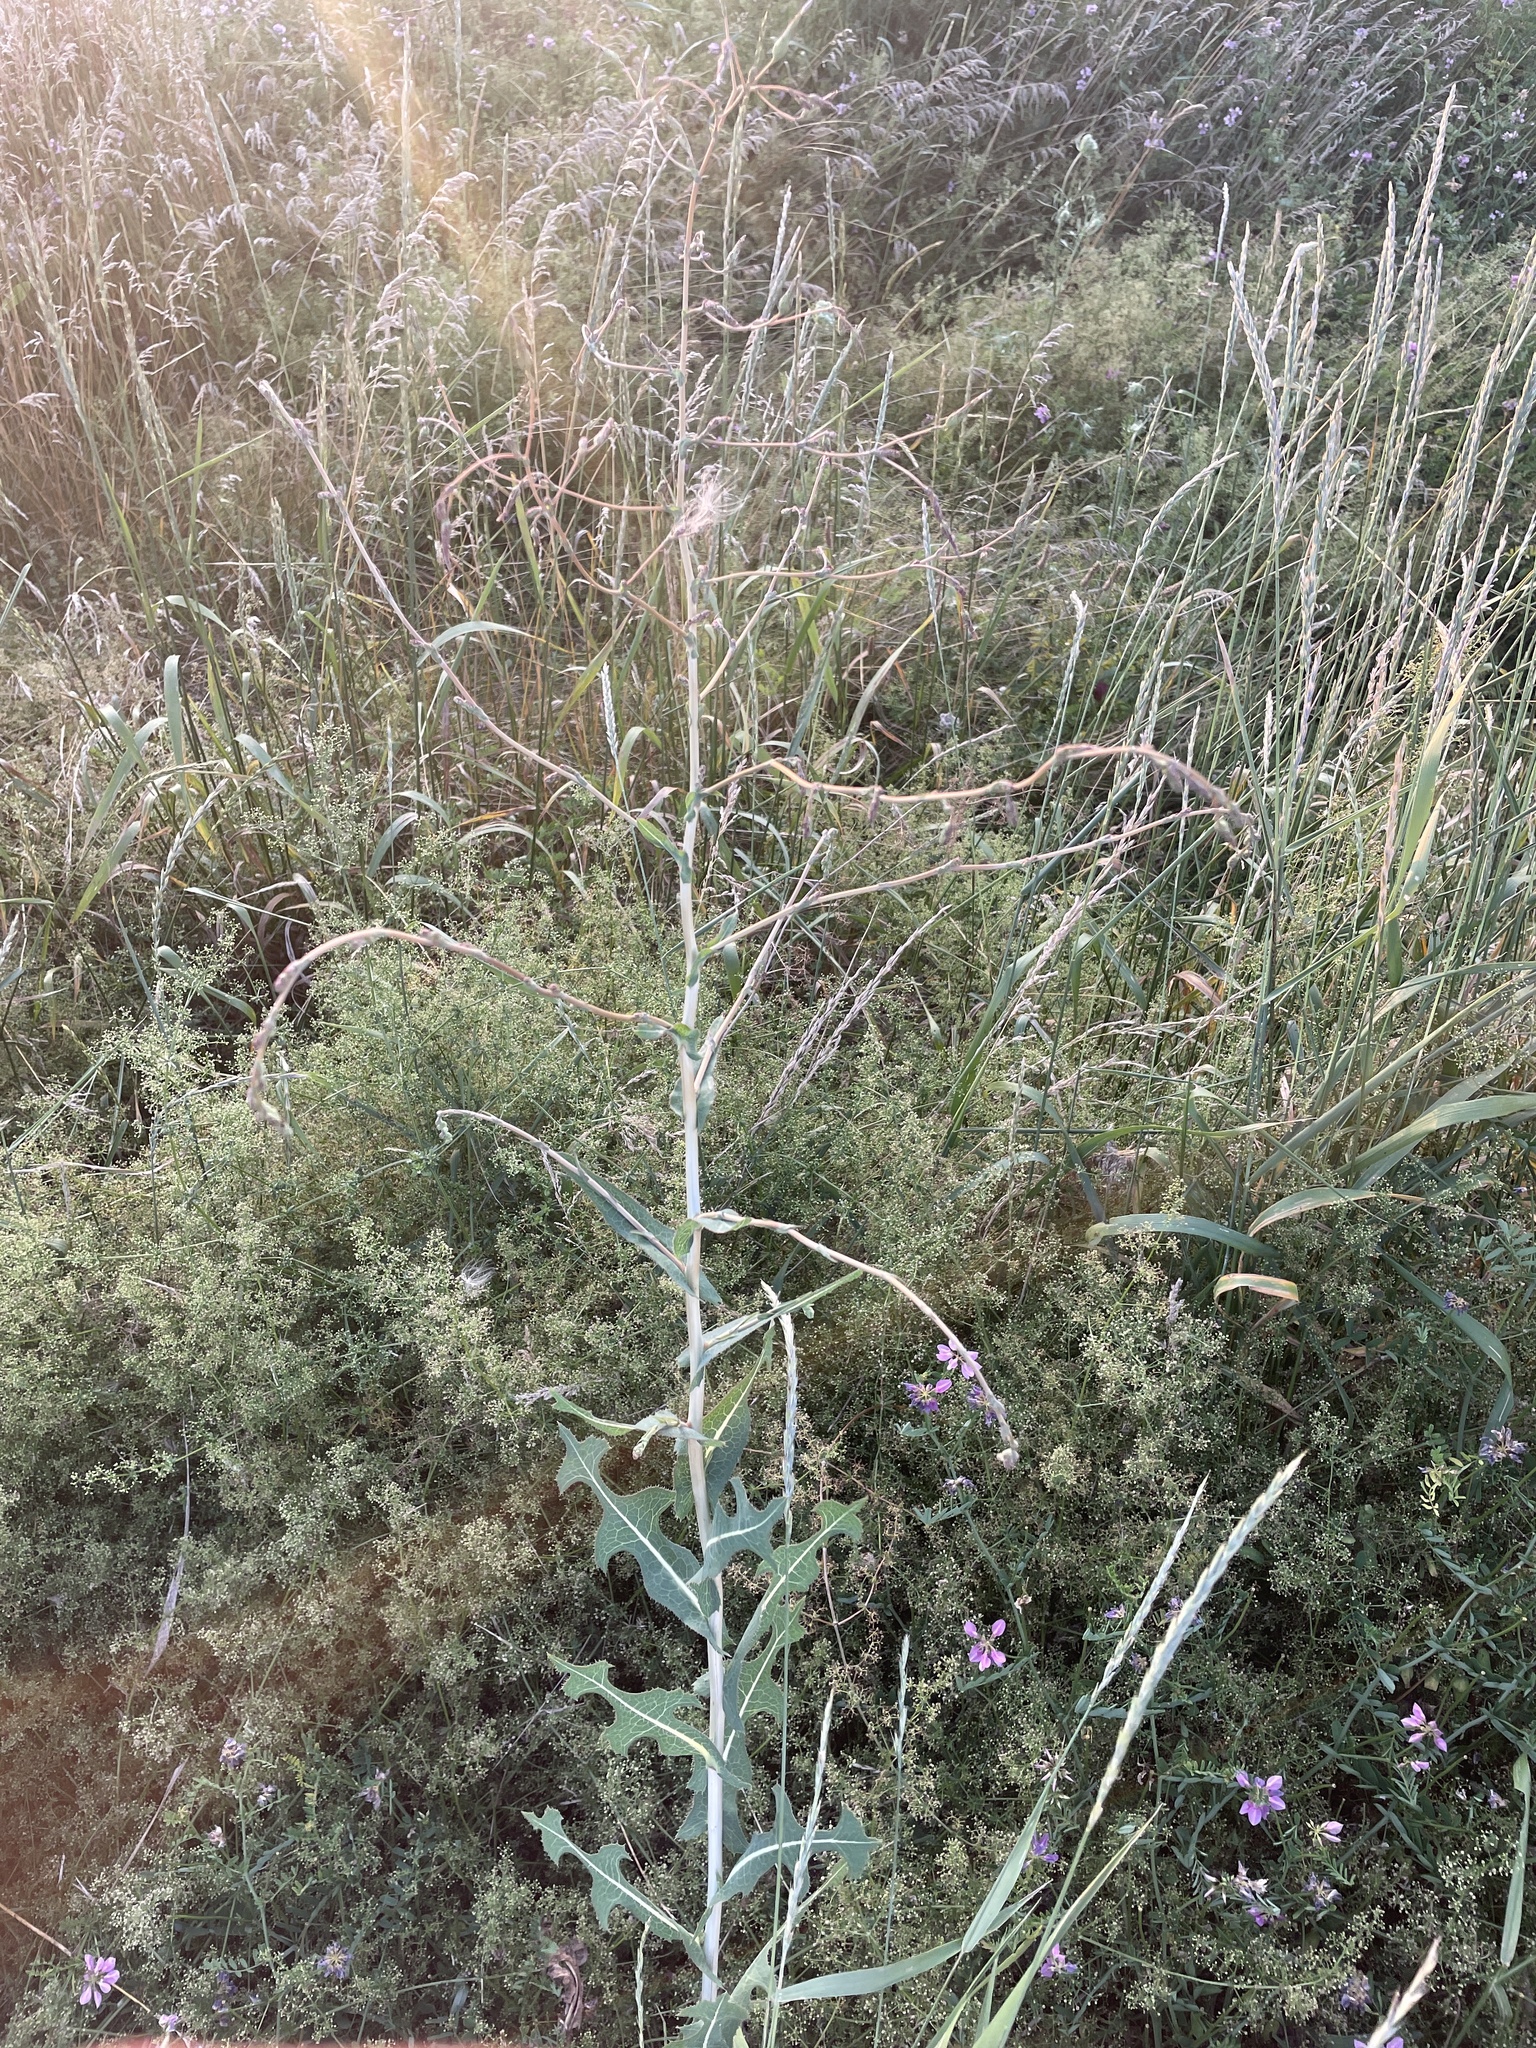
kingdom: Plantae
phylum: Tracheophyta
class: Magnoliopsida
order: Asterales
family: Asteraceae
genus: Lactuca
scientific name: Lactuca serriola
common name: Prickly lettuce
